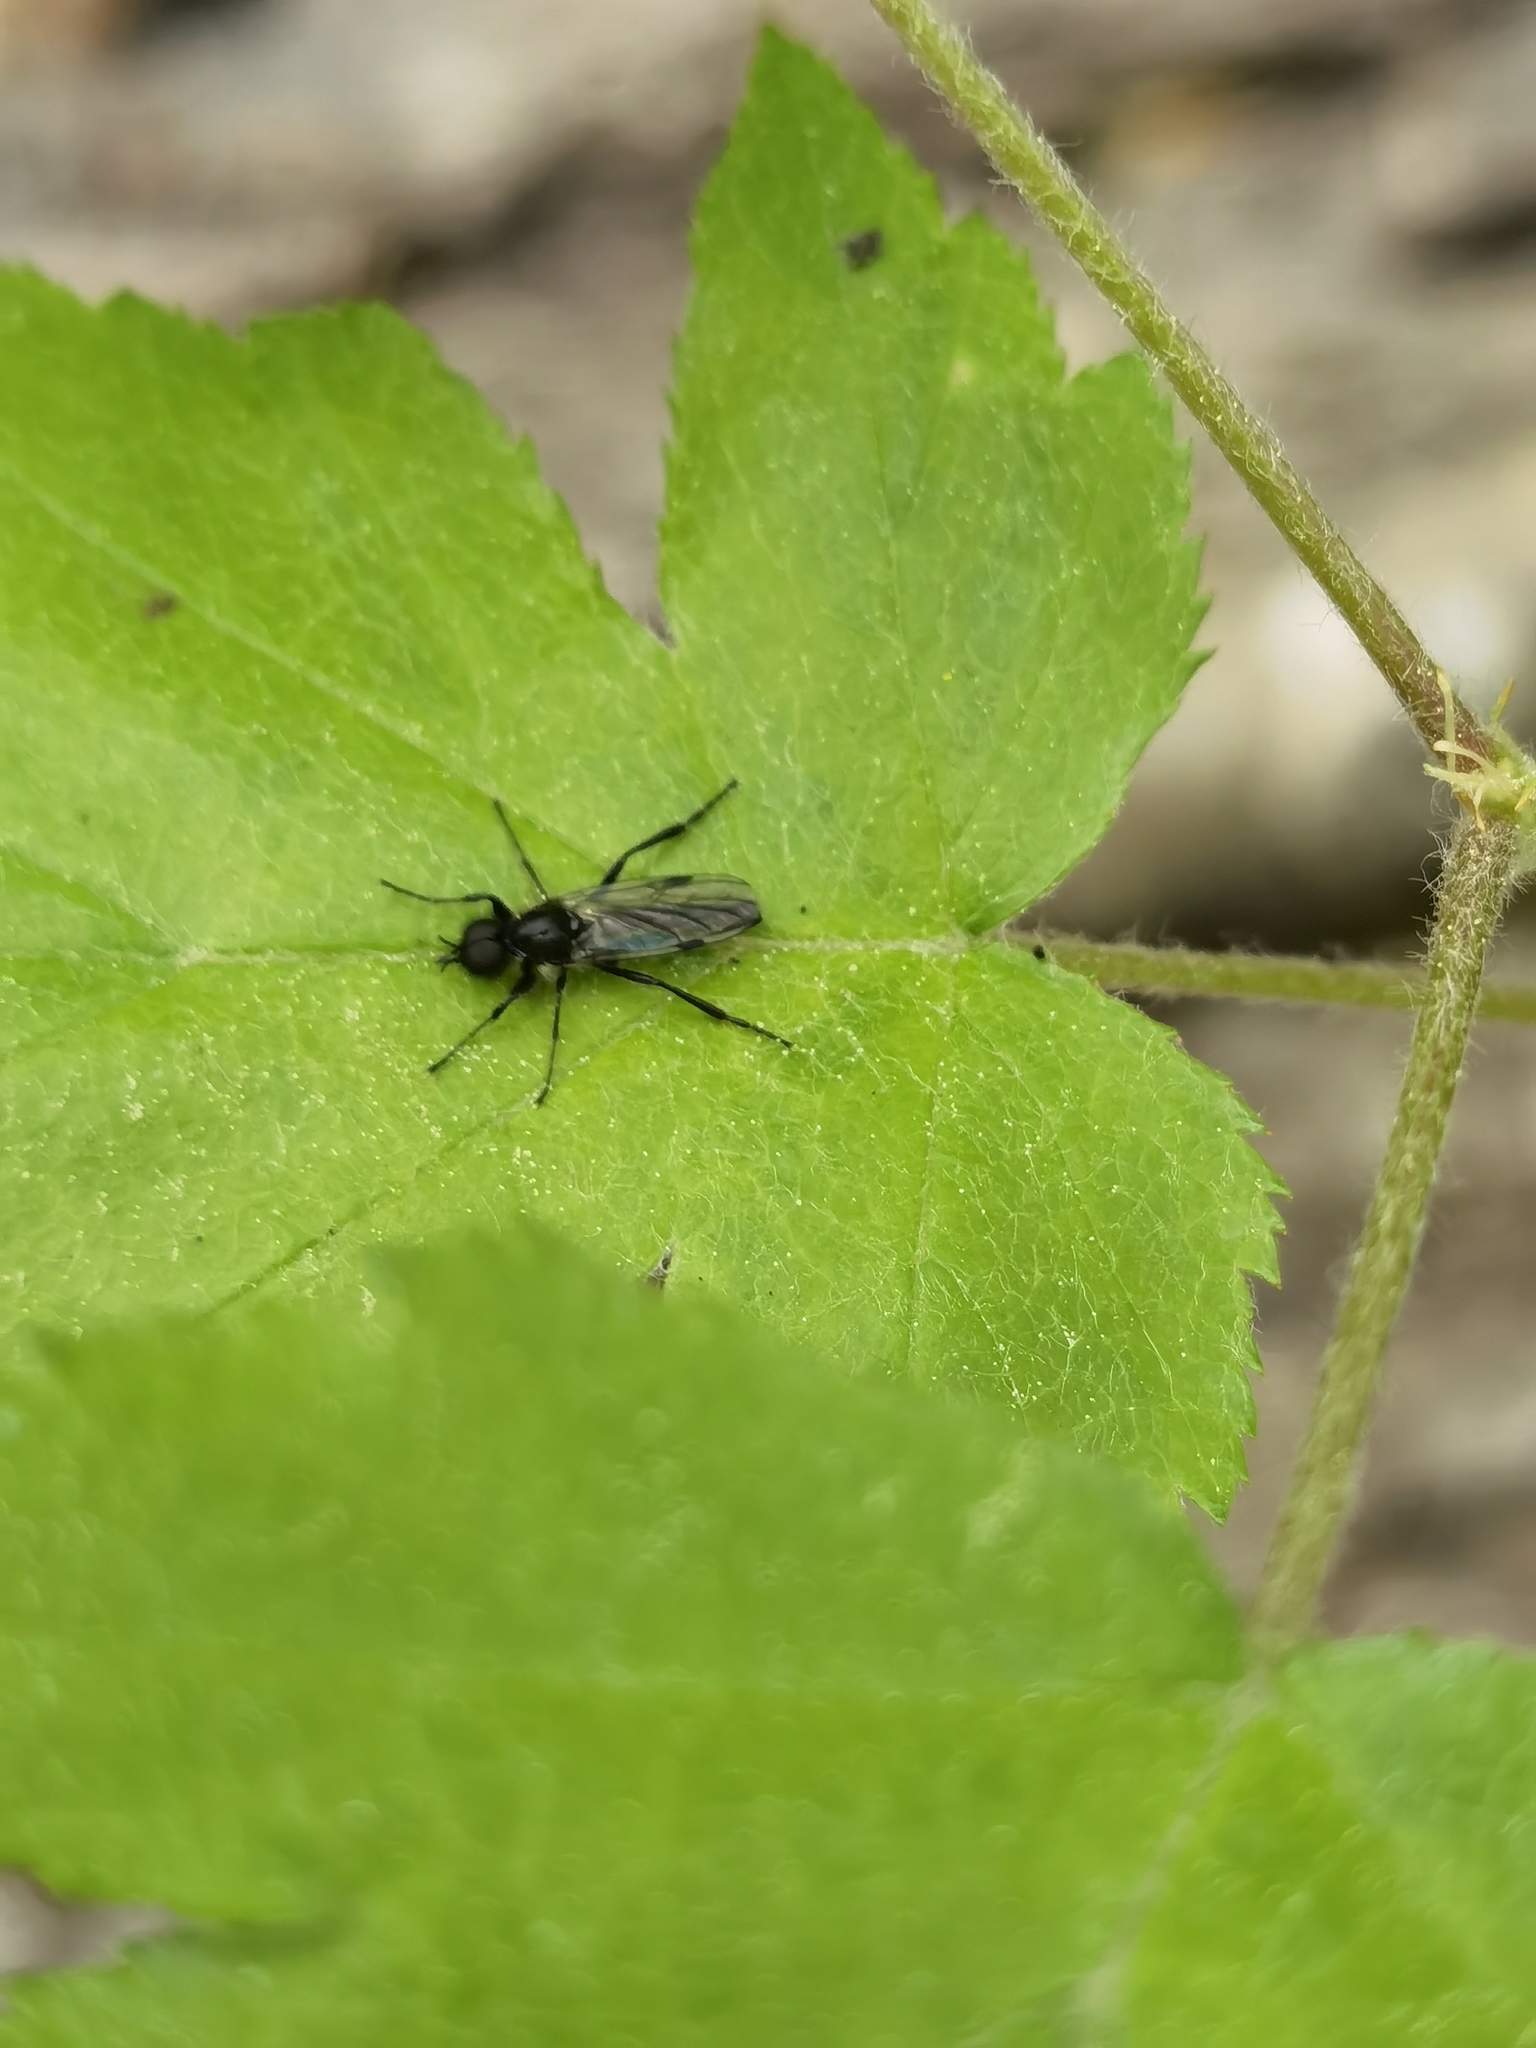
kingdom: Animalia
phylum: Arthropoda
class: Insecta
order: Diptera
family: Bibionidae
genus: Bibio
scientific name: Bibio marci
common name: St marks fly
